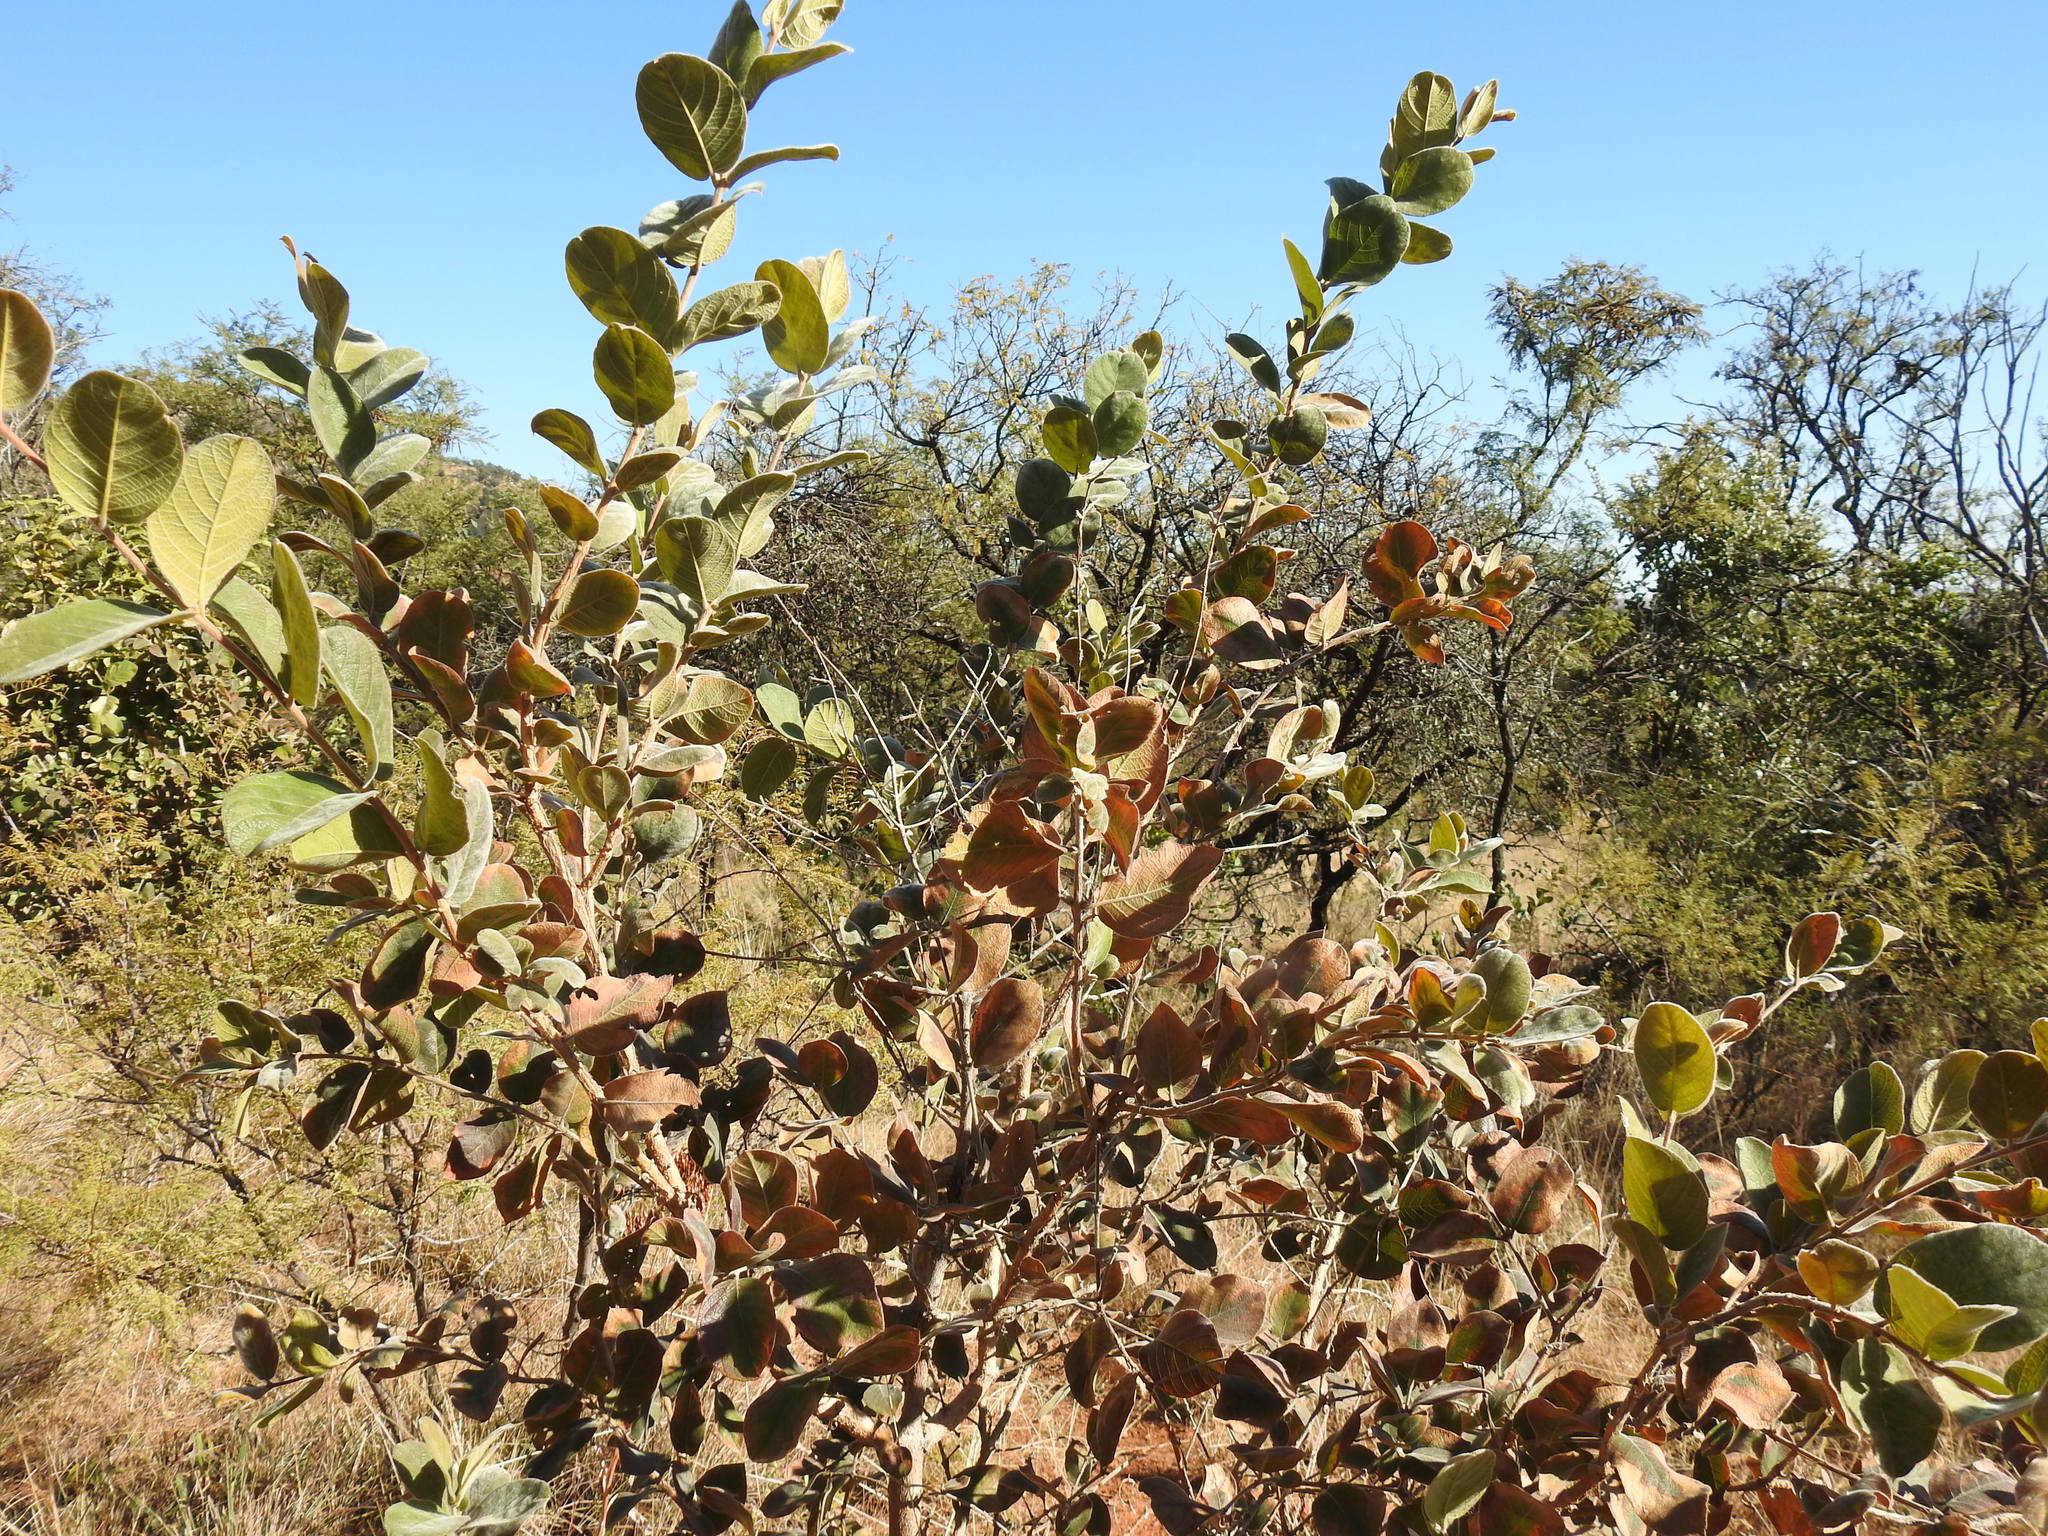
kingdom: Plantae
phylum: Tracheophyta
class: Magnoliopsida
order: Myrtales
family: Combretaceae
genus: Combretum
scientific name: Combretum molle
